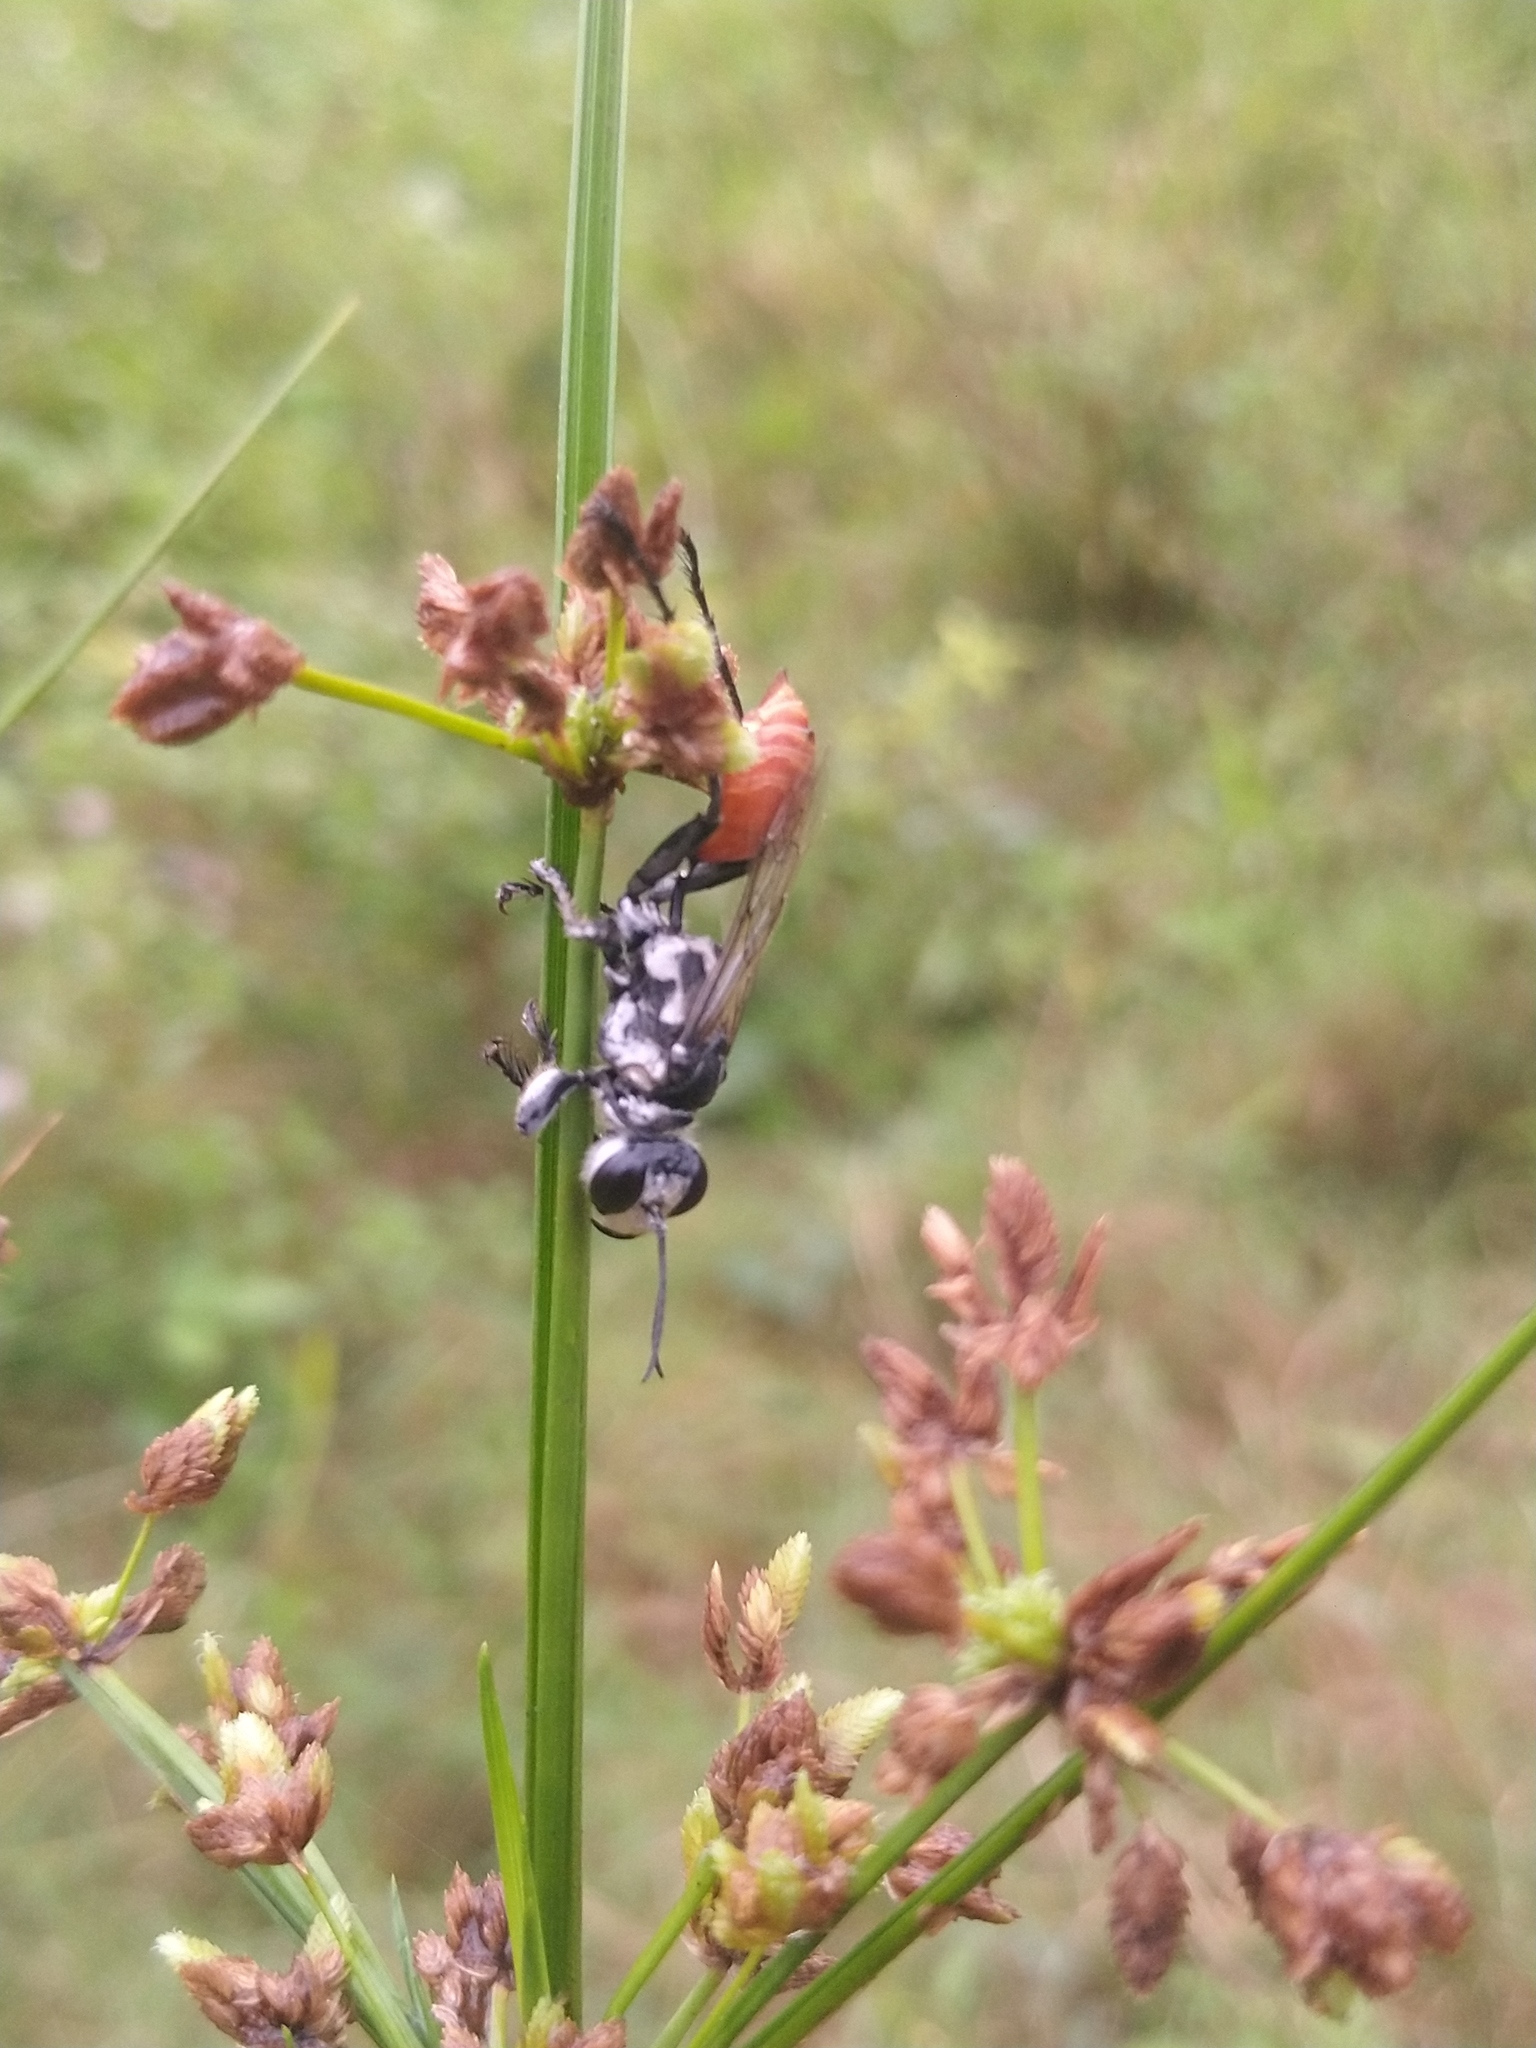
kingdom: Animalia
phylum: Arthropoda
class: Insecta
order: Hymenoptera
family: Sphecidae
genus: Prionyx
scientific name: Prionyx
